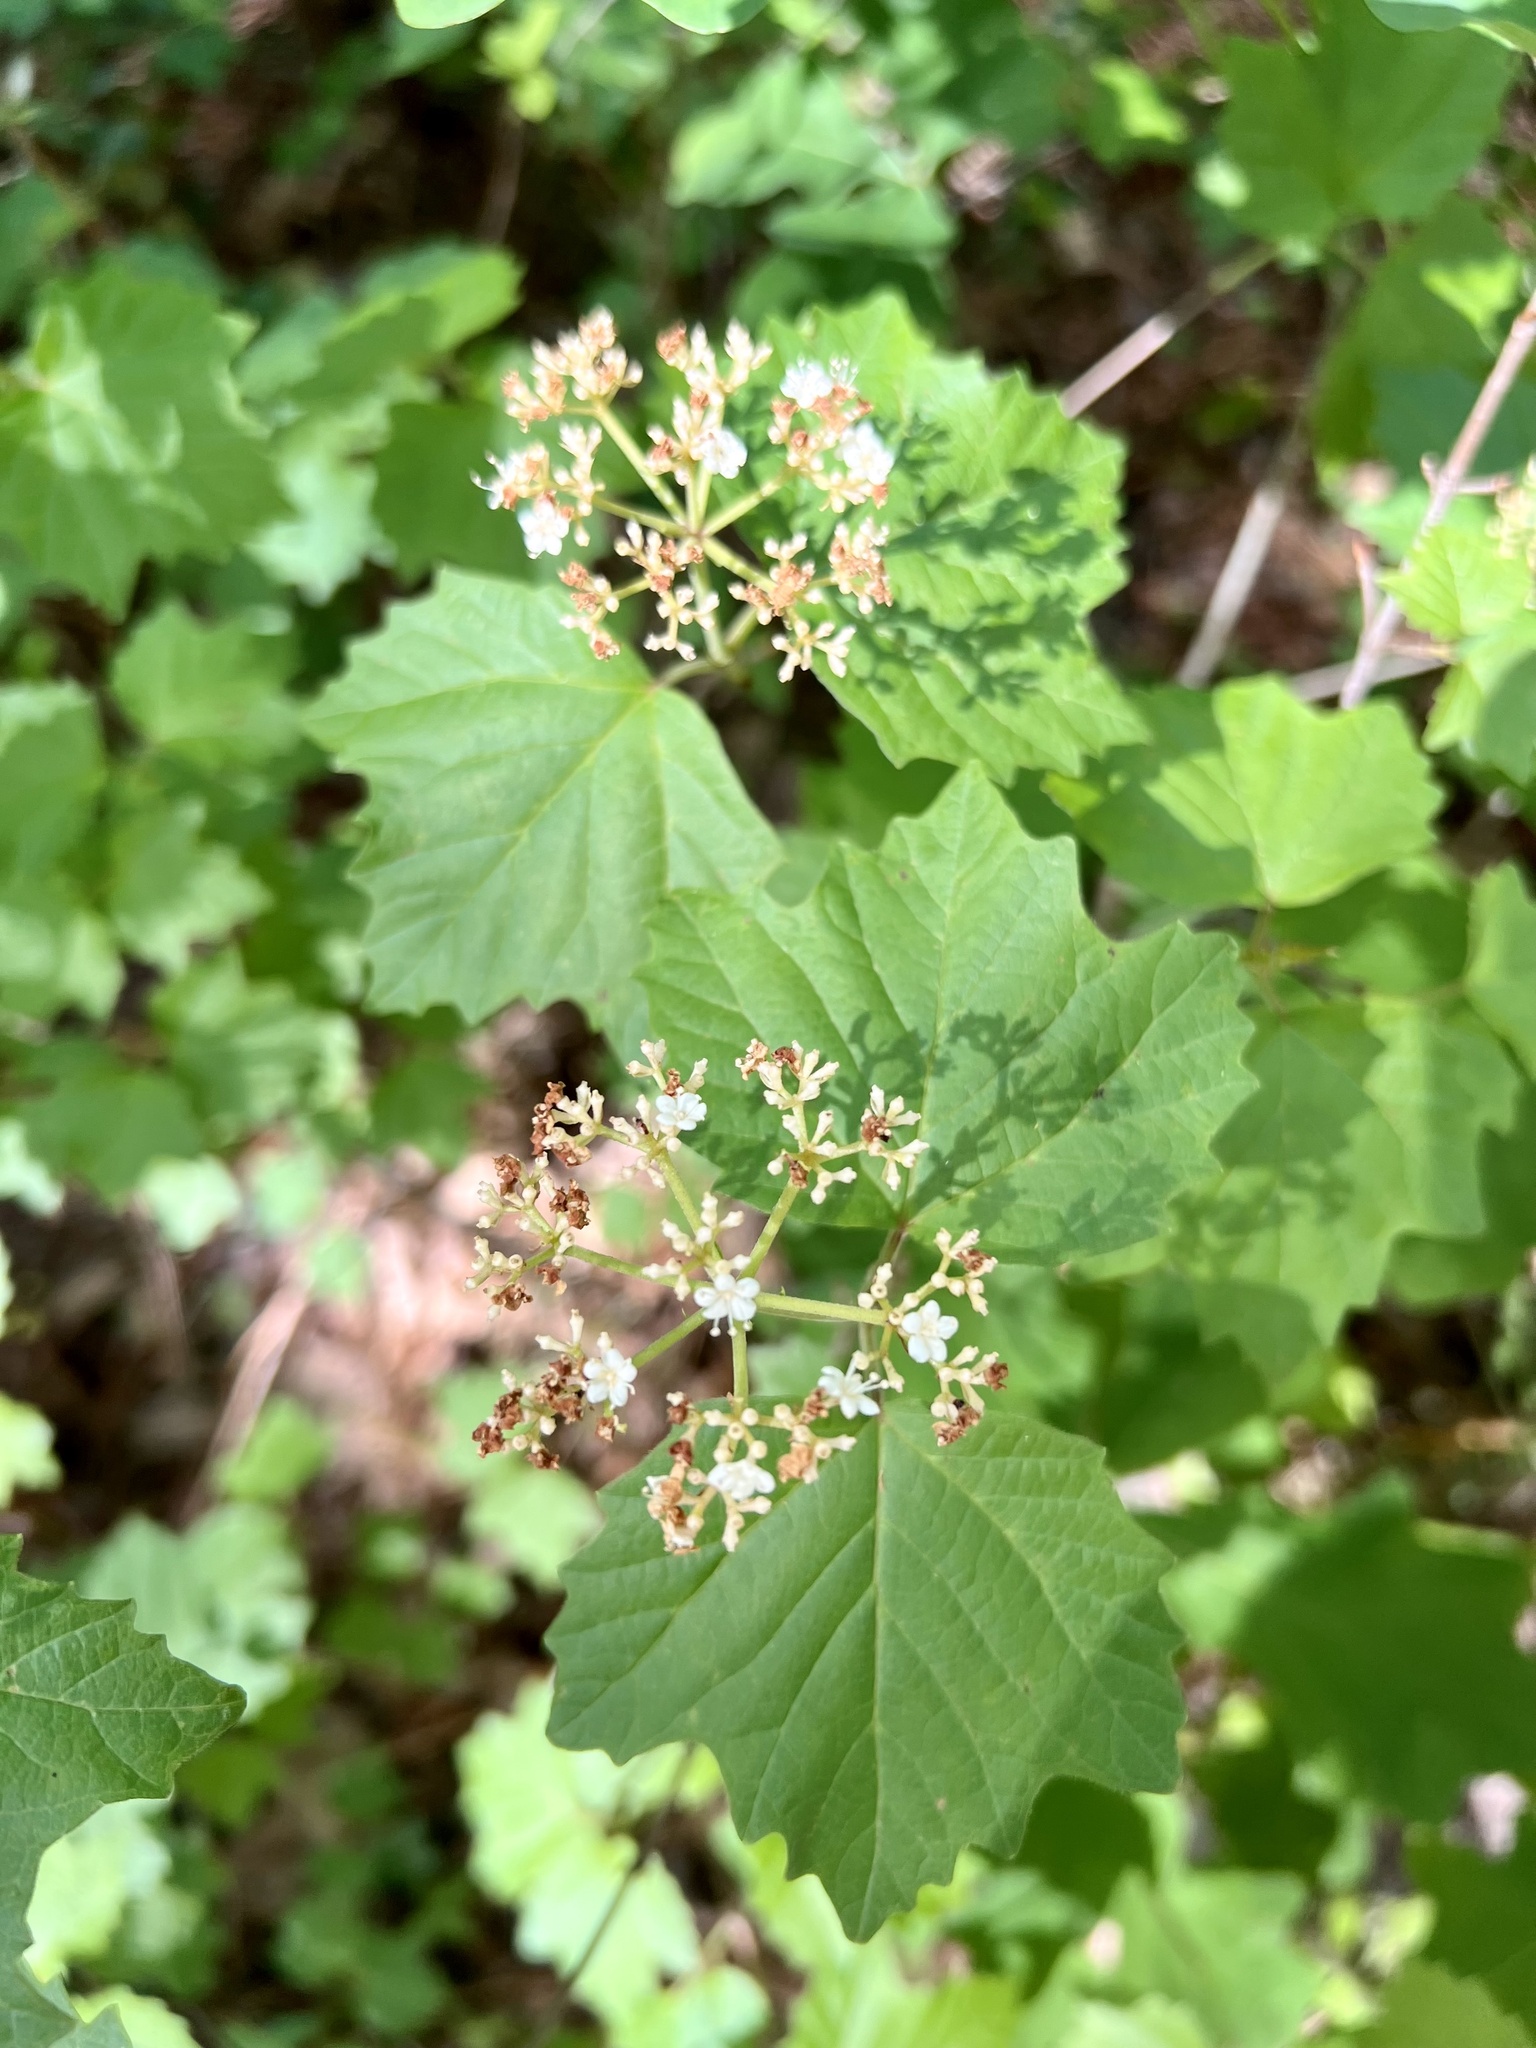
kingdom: Plantae
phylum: Tracheophyta
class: Magnoliopsida
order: Dipsacales
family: Viburnaceae
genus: Viburnum
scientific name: Viburnum acerifolium
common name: Dockmackie
